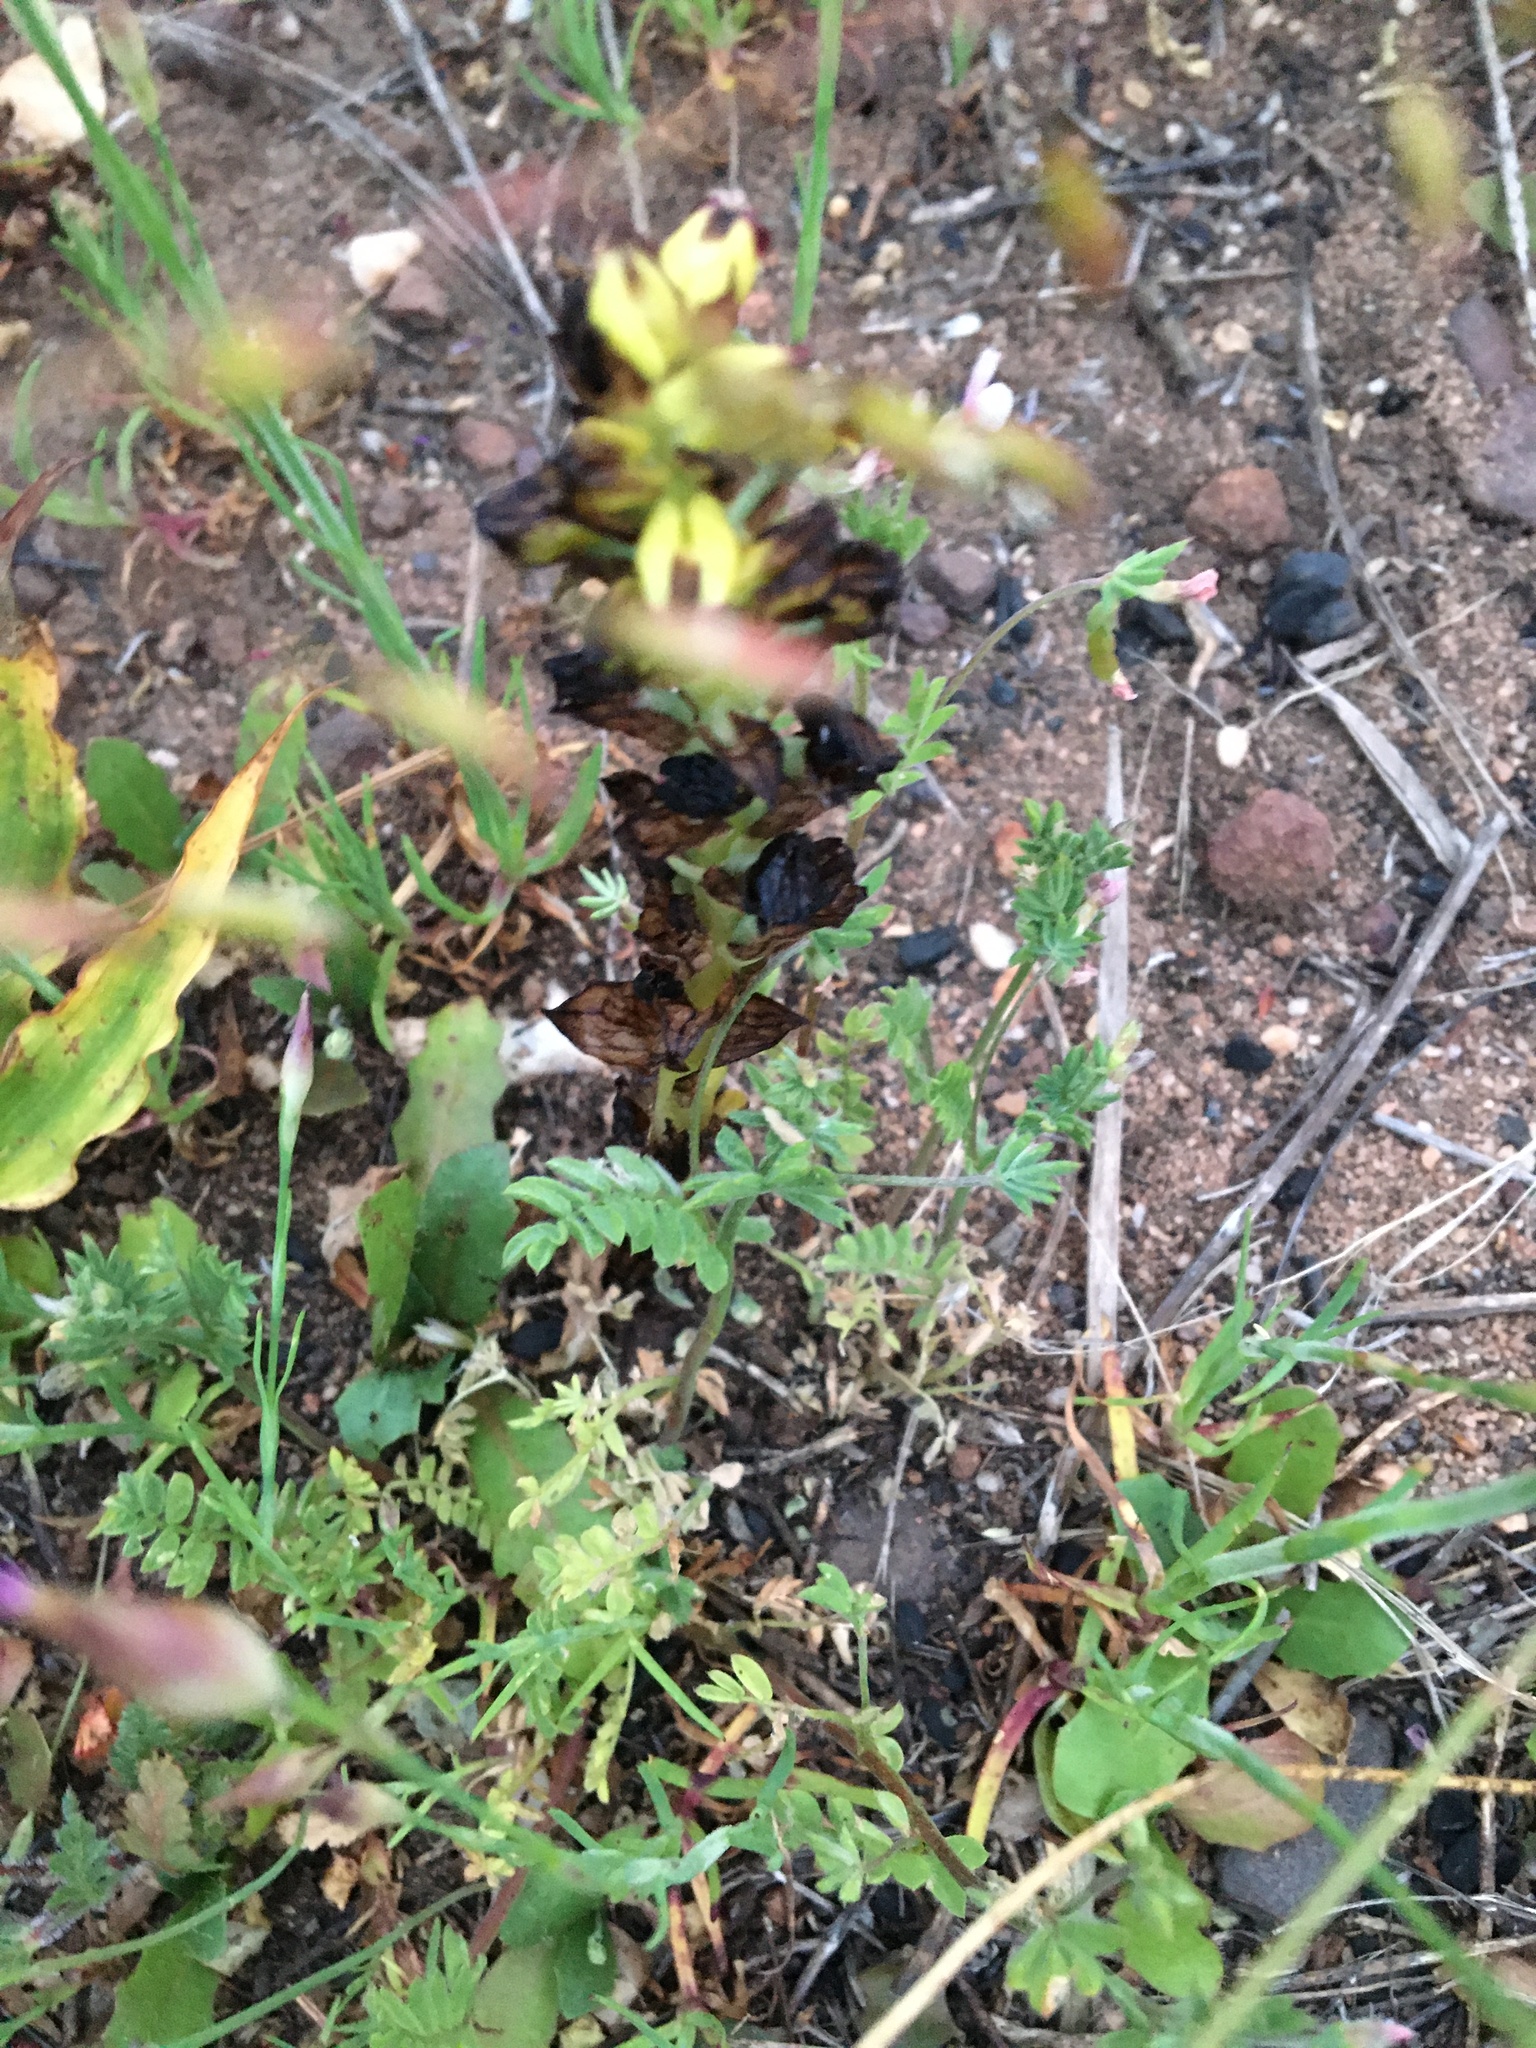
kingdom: Plantae
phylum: Tracheophyta
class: Liliopsida
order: Asparagales
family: Orchidaceae
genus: Corycium
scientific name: Corycium orobanchoides
